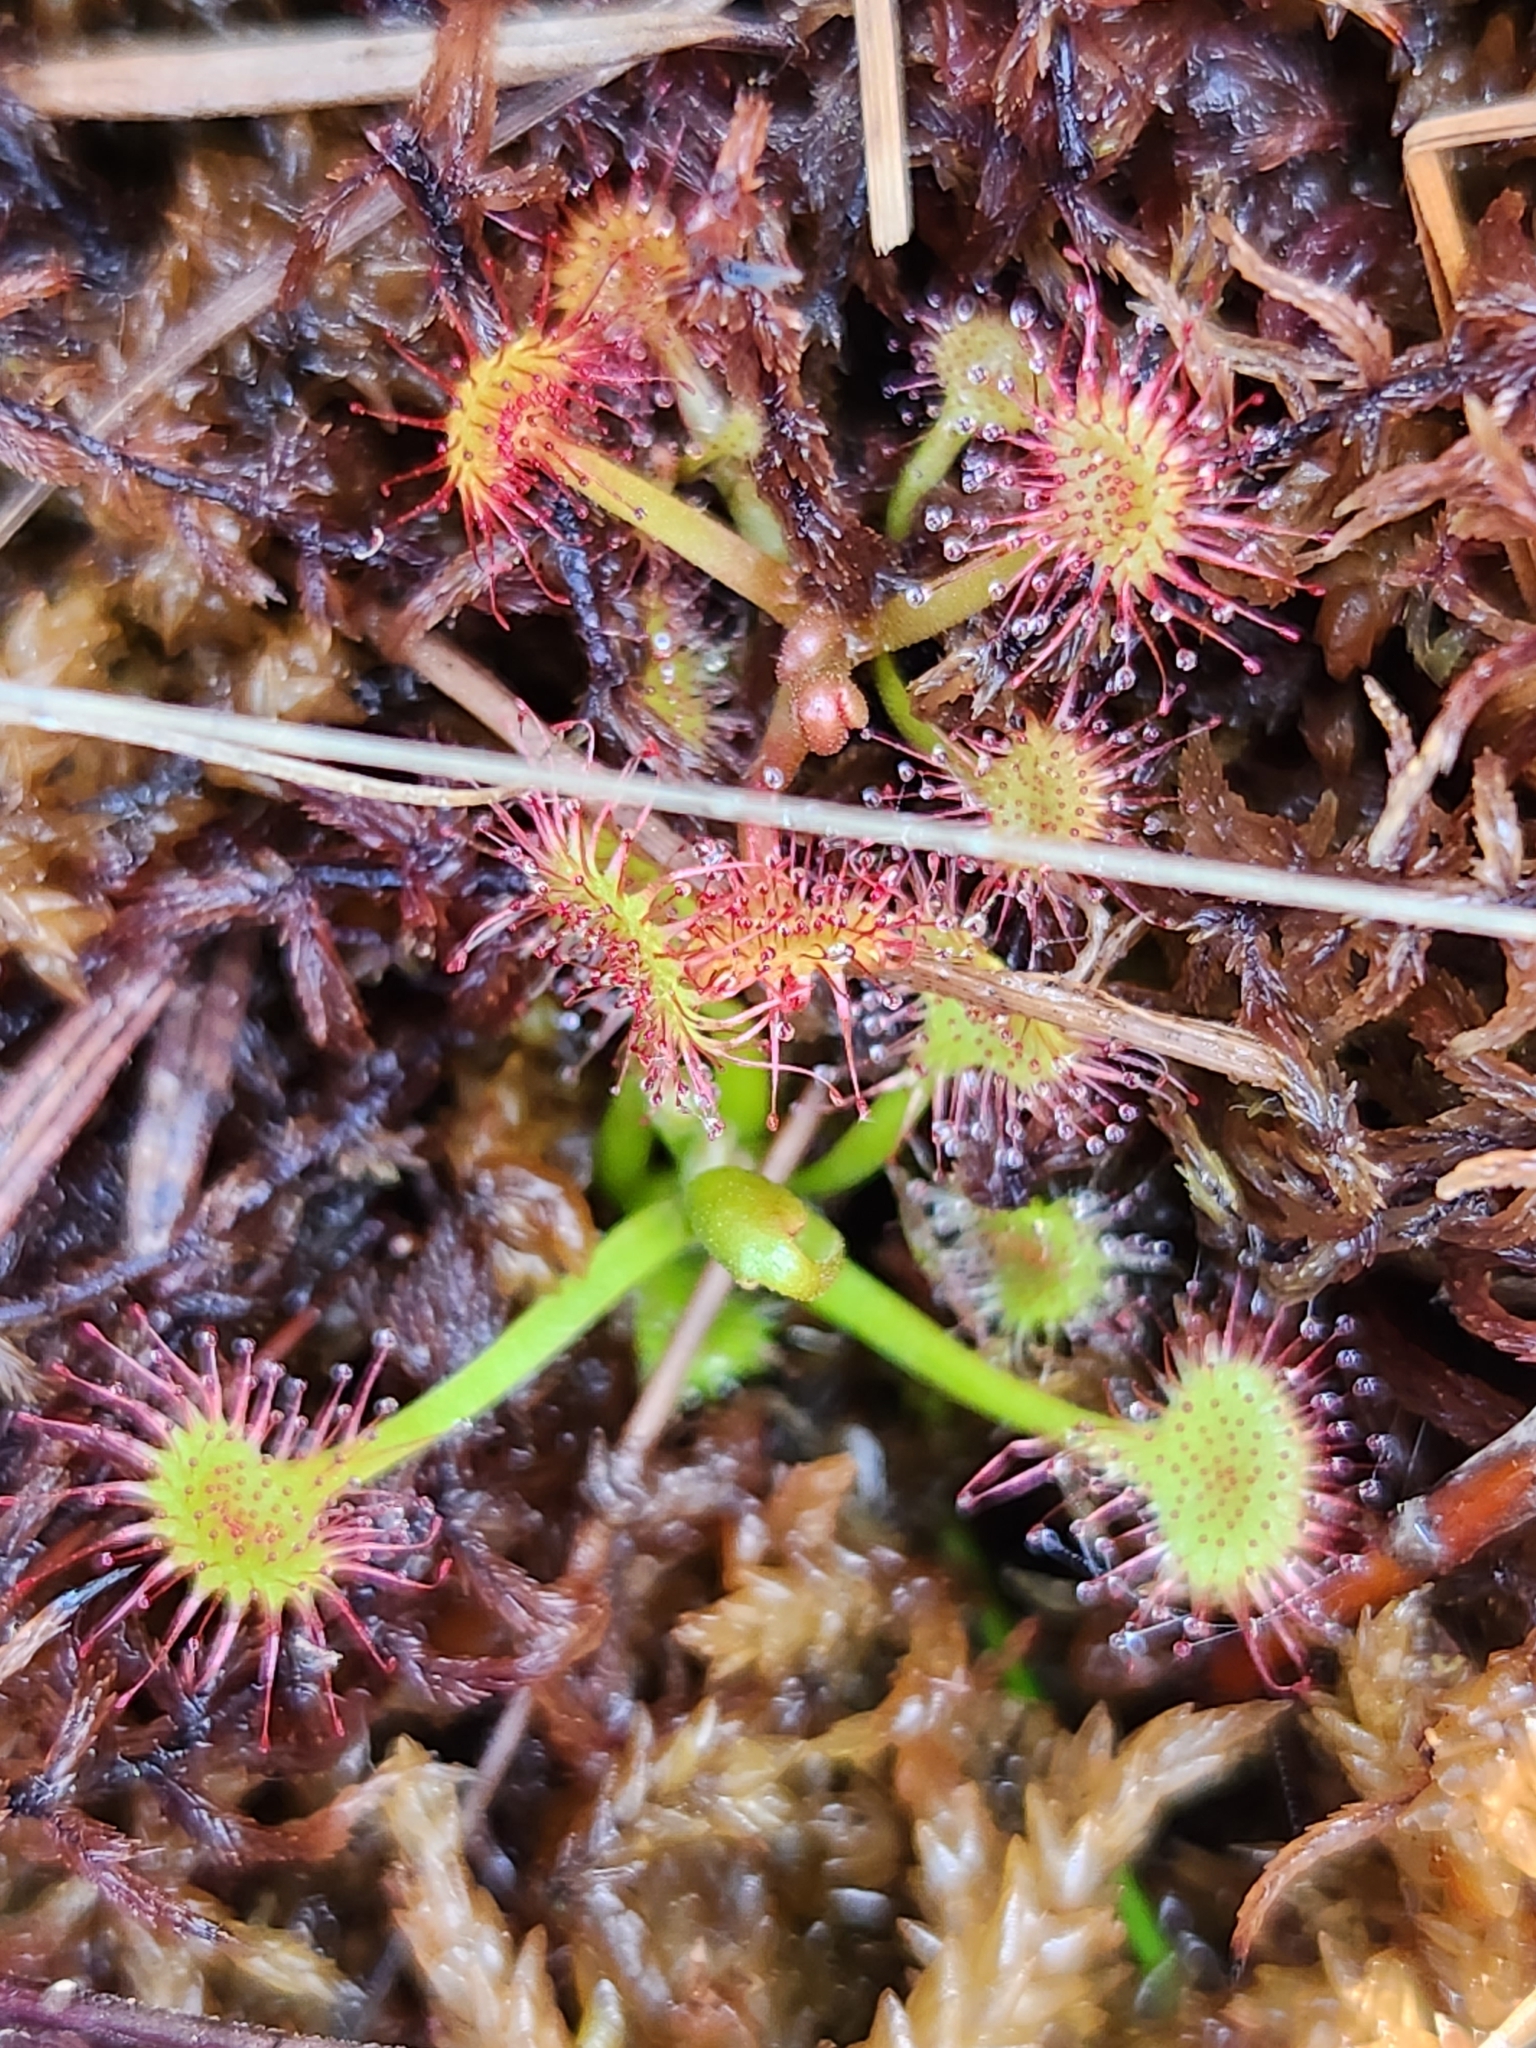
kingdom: Plantae
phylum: Tracheophyta
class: Magnoliopsida
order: Caryophyllales
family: Droseraceae
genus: Drosera
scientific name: Drosera rotundifolia
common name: Round-leaved sundew
